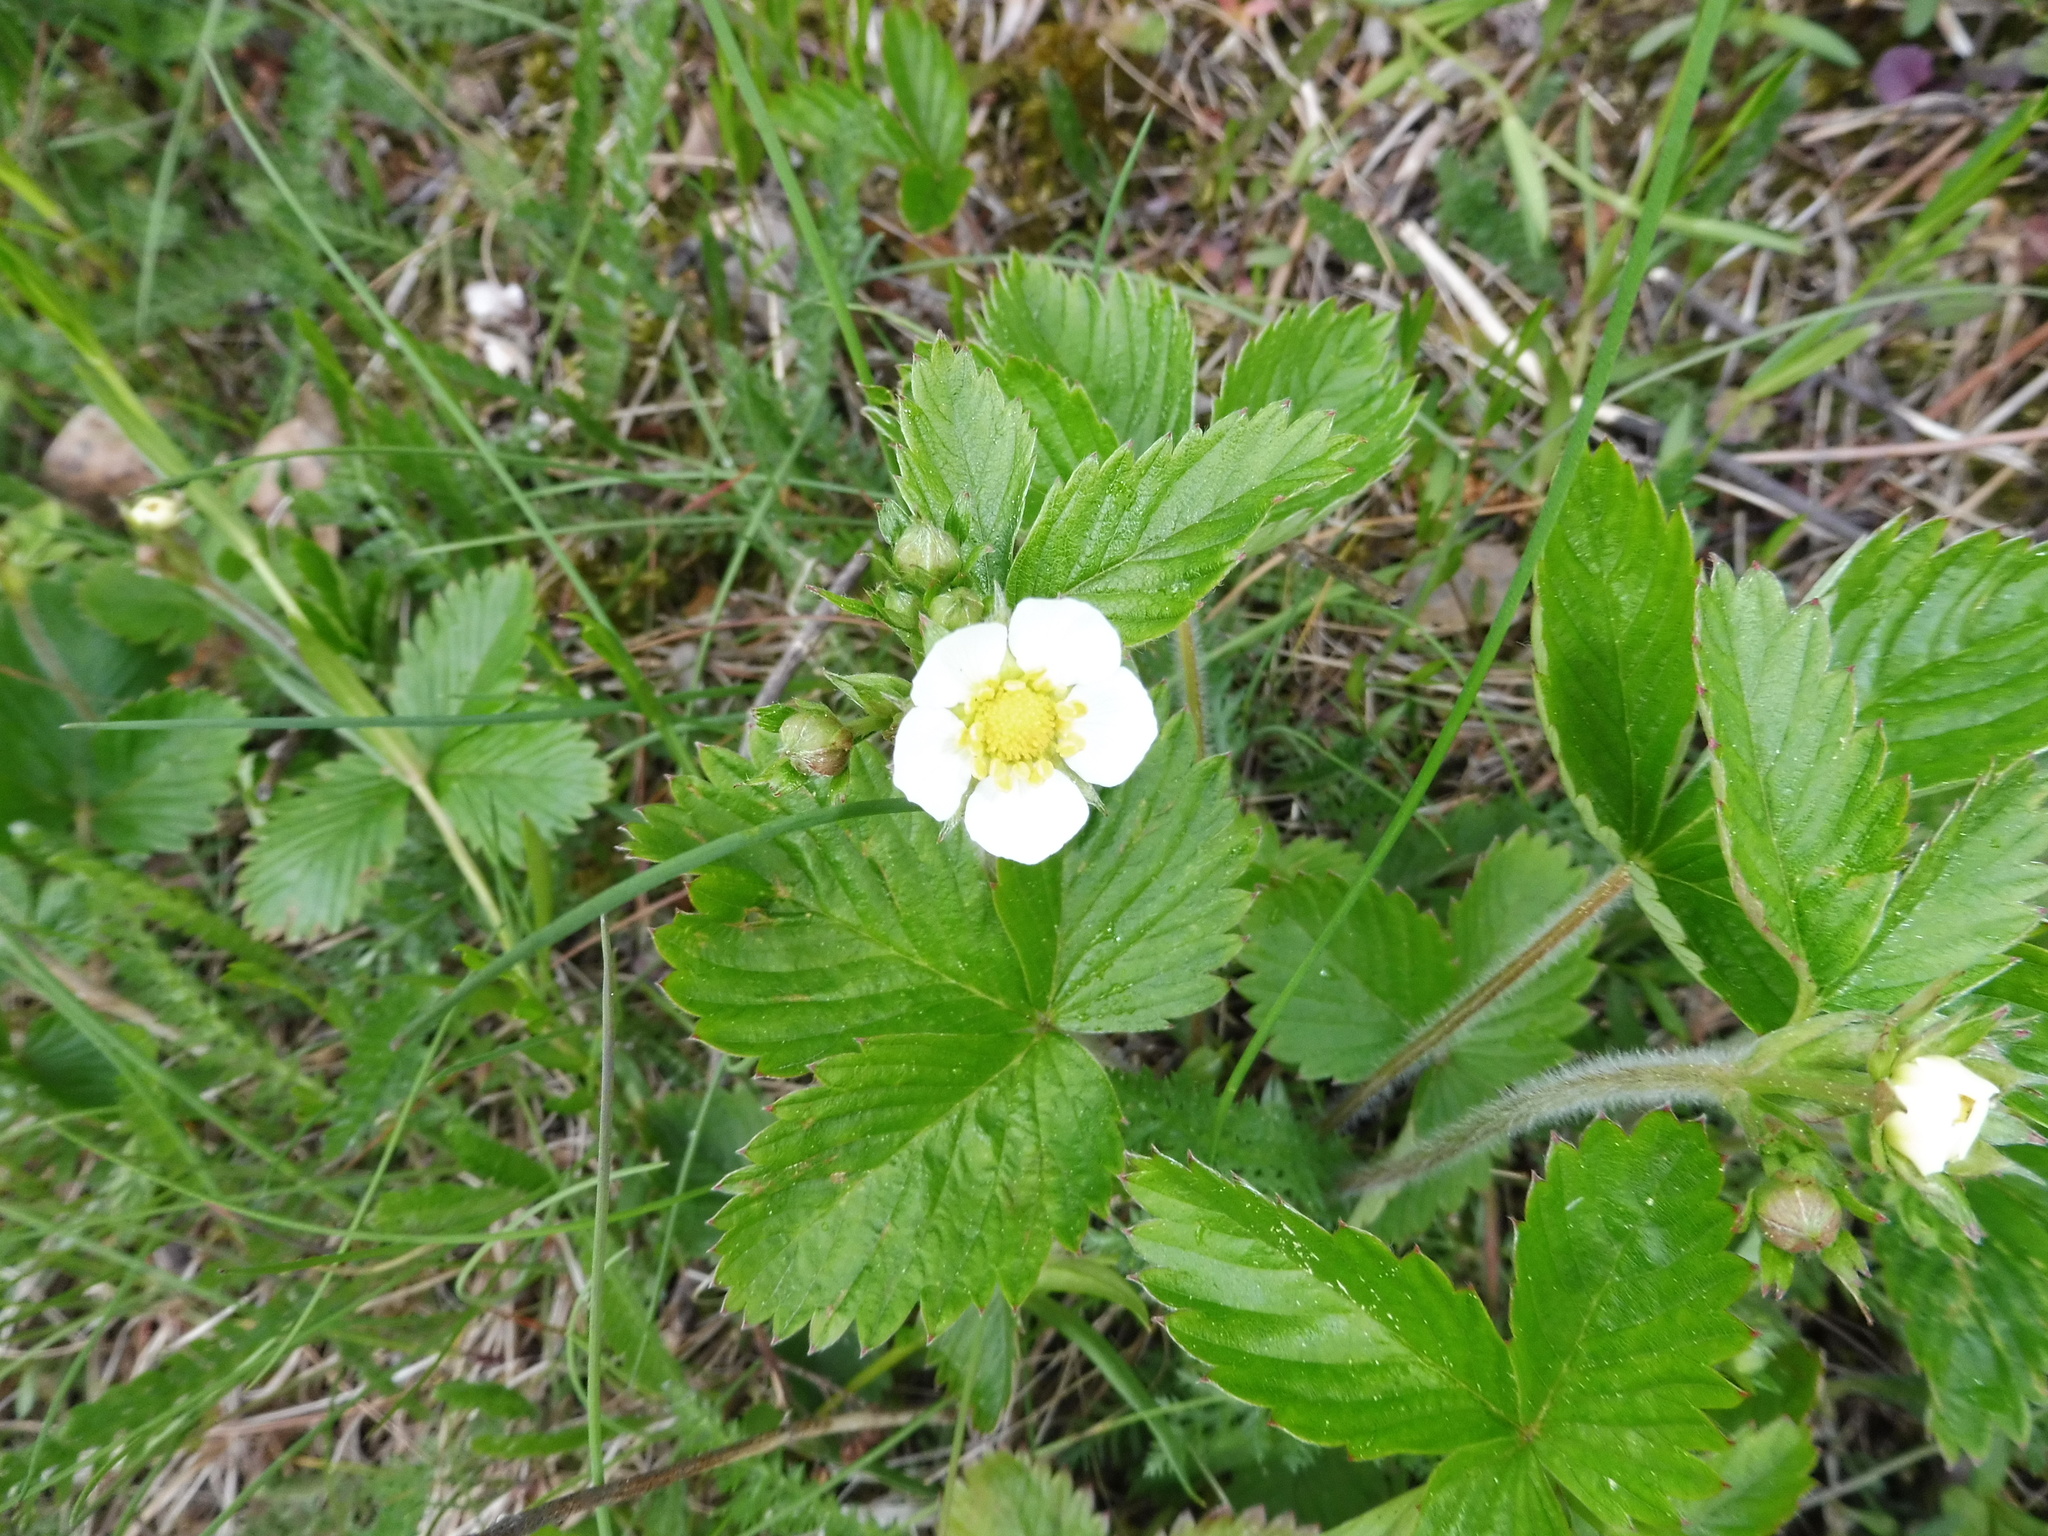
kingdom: Plantae
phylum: Tracheophyta
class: Magnoliopsida
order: Rosales
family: Rosaceae
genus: Fragaria
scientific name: Fragaria vesca
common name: Wild strawberry
